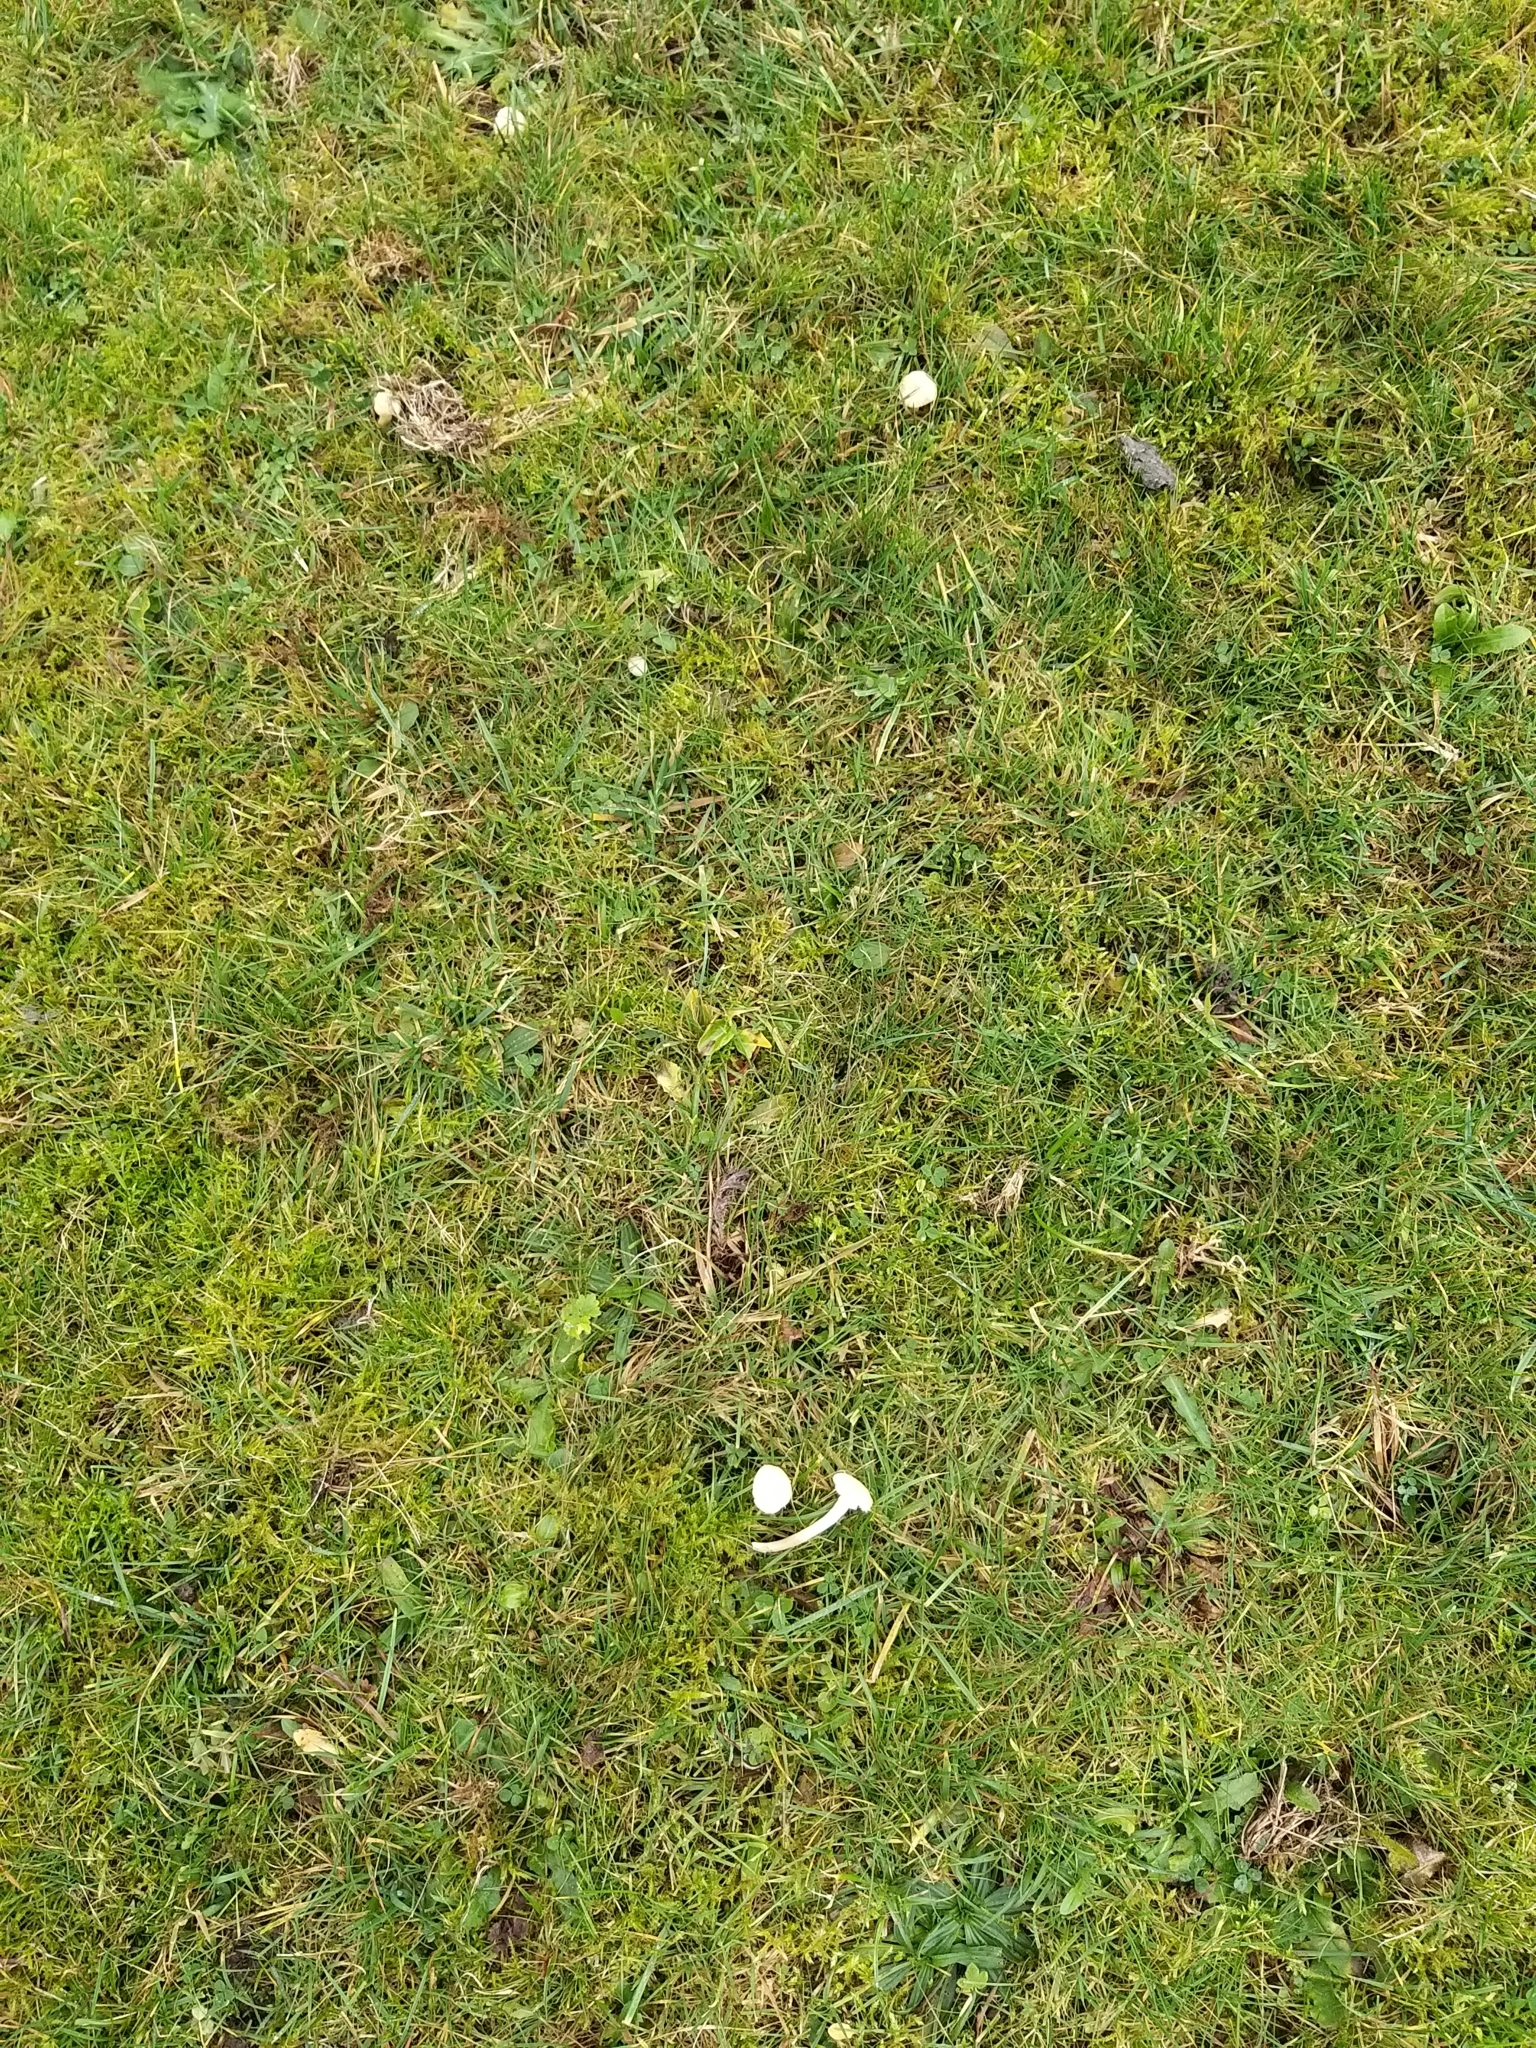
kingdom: Fungi
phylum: Basidiomycota
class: Agaricomycetes
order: Agaricales
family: Hygrophoraceae
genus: Cuphophyllus
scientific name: Cuphophyllus virgineus
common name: Snowy waxcap
